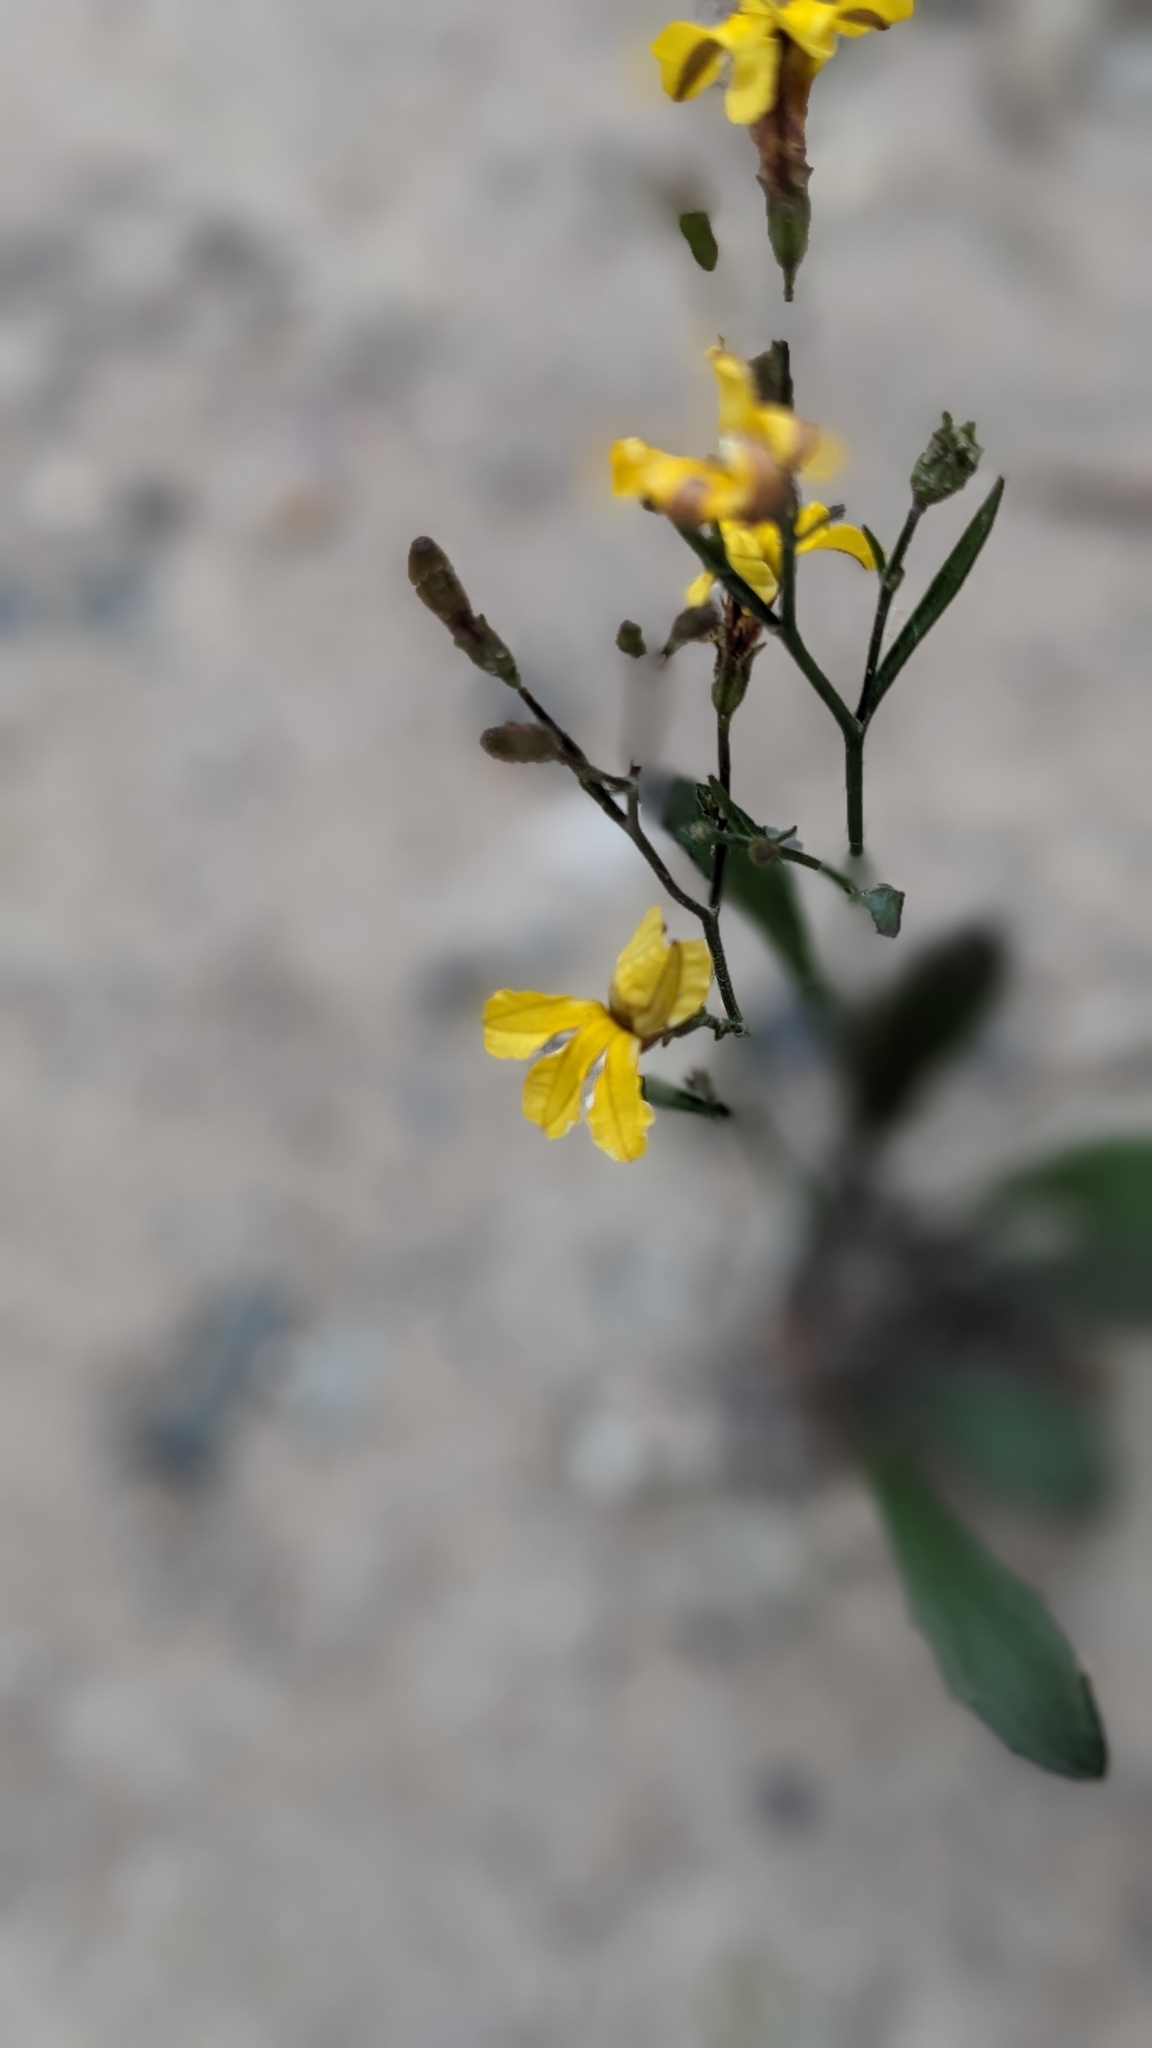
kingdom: Plantae
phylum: Tracheophyta
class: Magnoliopsida
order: Asterales
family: Goodeniaceae
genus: Goodenia
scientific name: Goodenia bellidifolia
